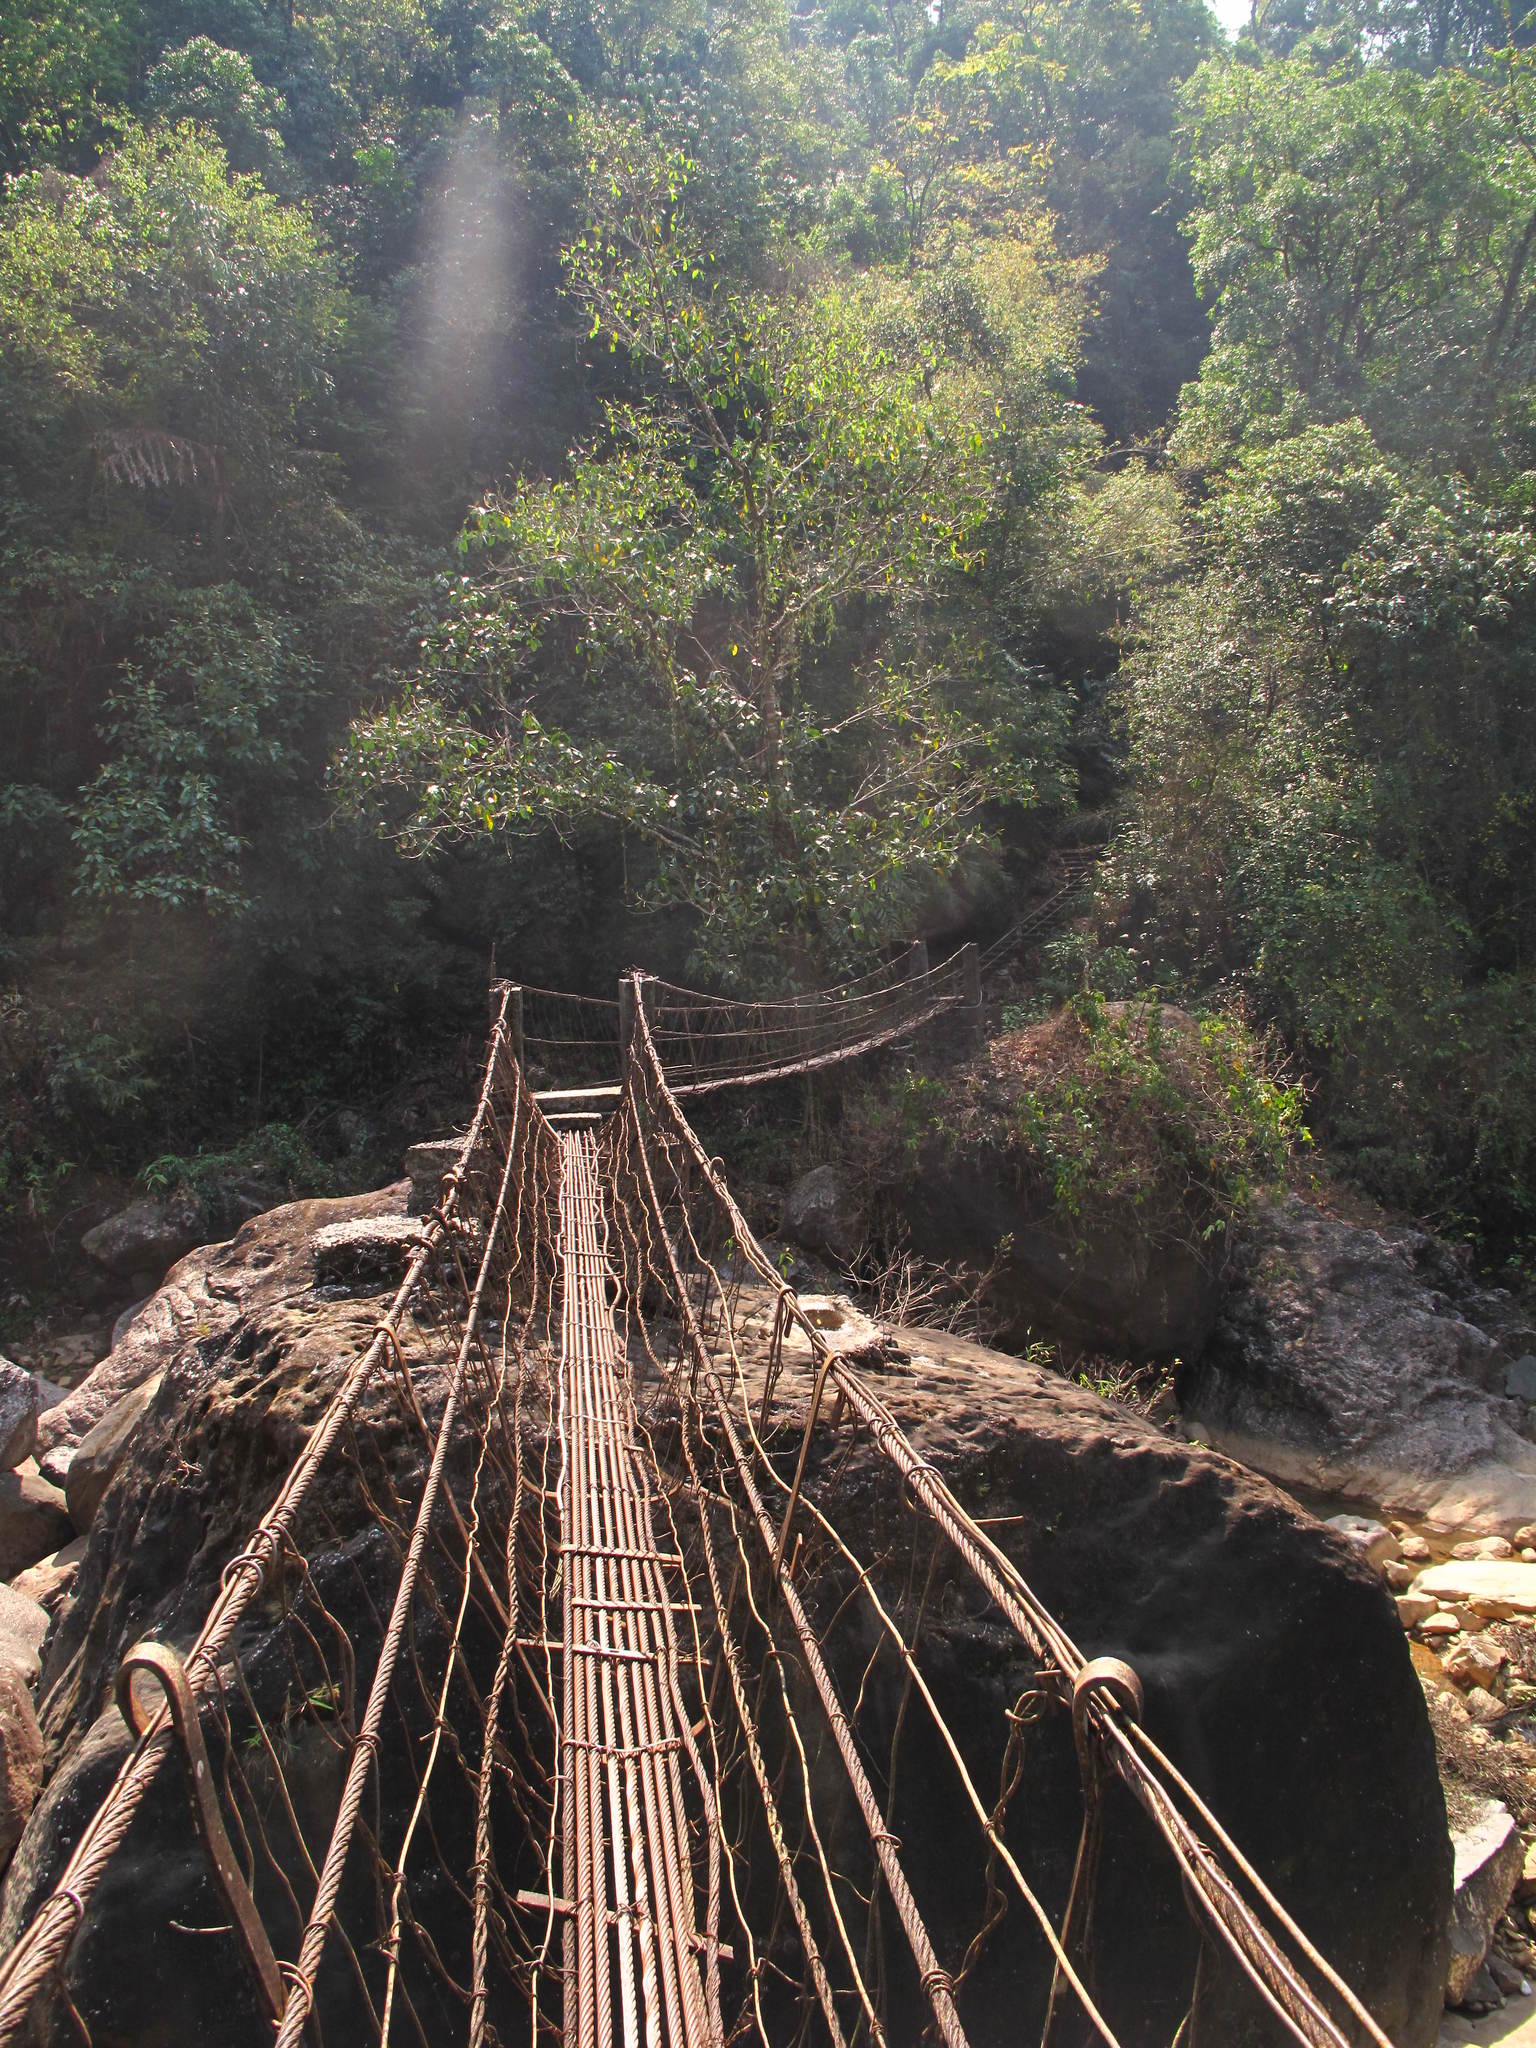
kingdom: Plantae
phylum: Tracheophyta
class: Magnoliopsida
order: Rosales
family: Moraceae
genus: Ficus
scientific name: Ficus elastica
